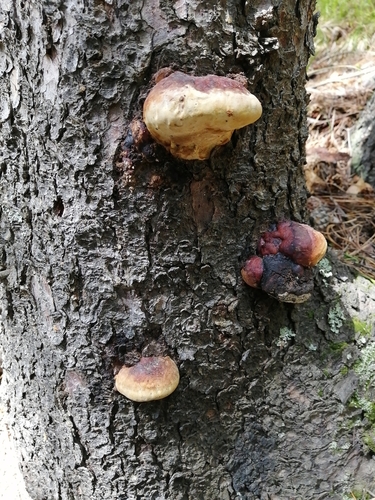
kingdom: Fungi
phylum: Basidiomycota
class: Agaricomycetes
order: Polyporales
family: Fomitopsidaceae
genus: Fomitopsis
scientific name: Fomitopsis pinicola
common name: Red-belted bracket
